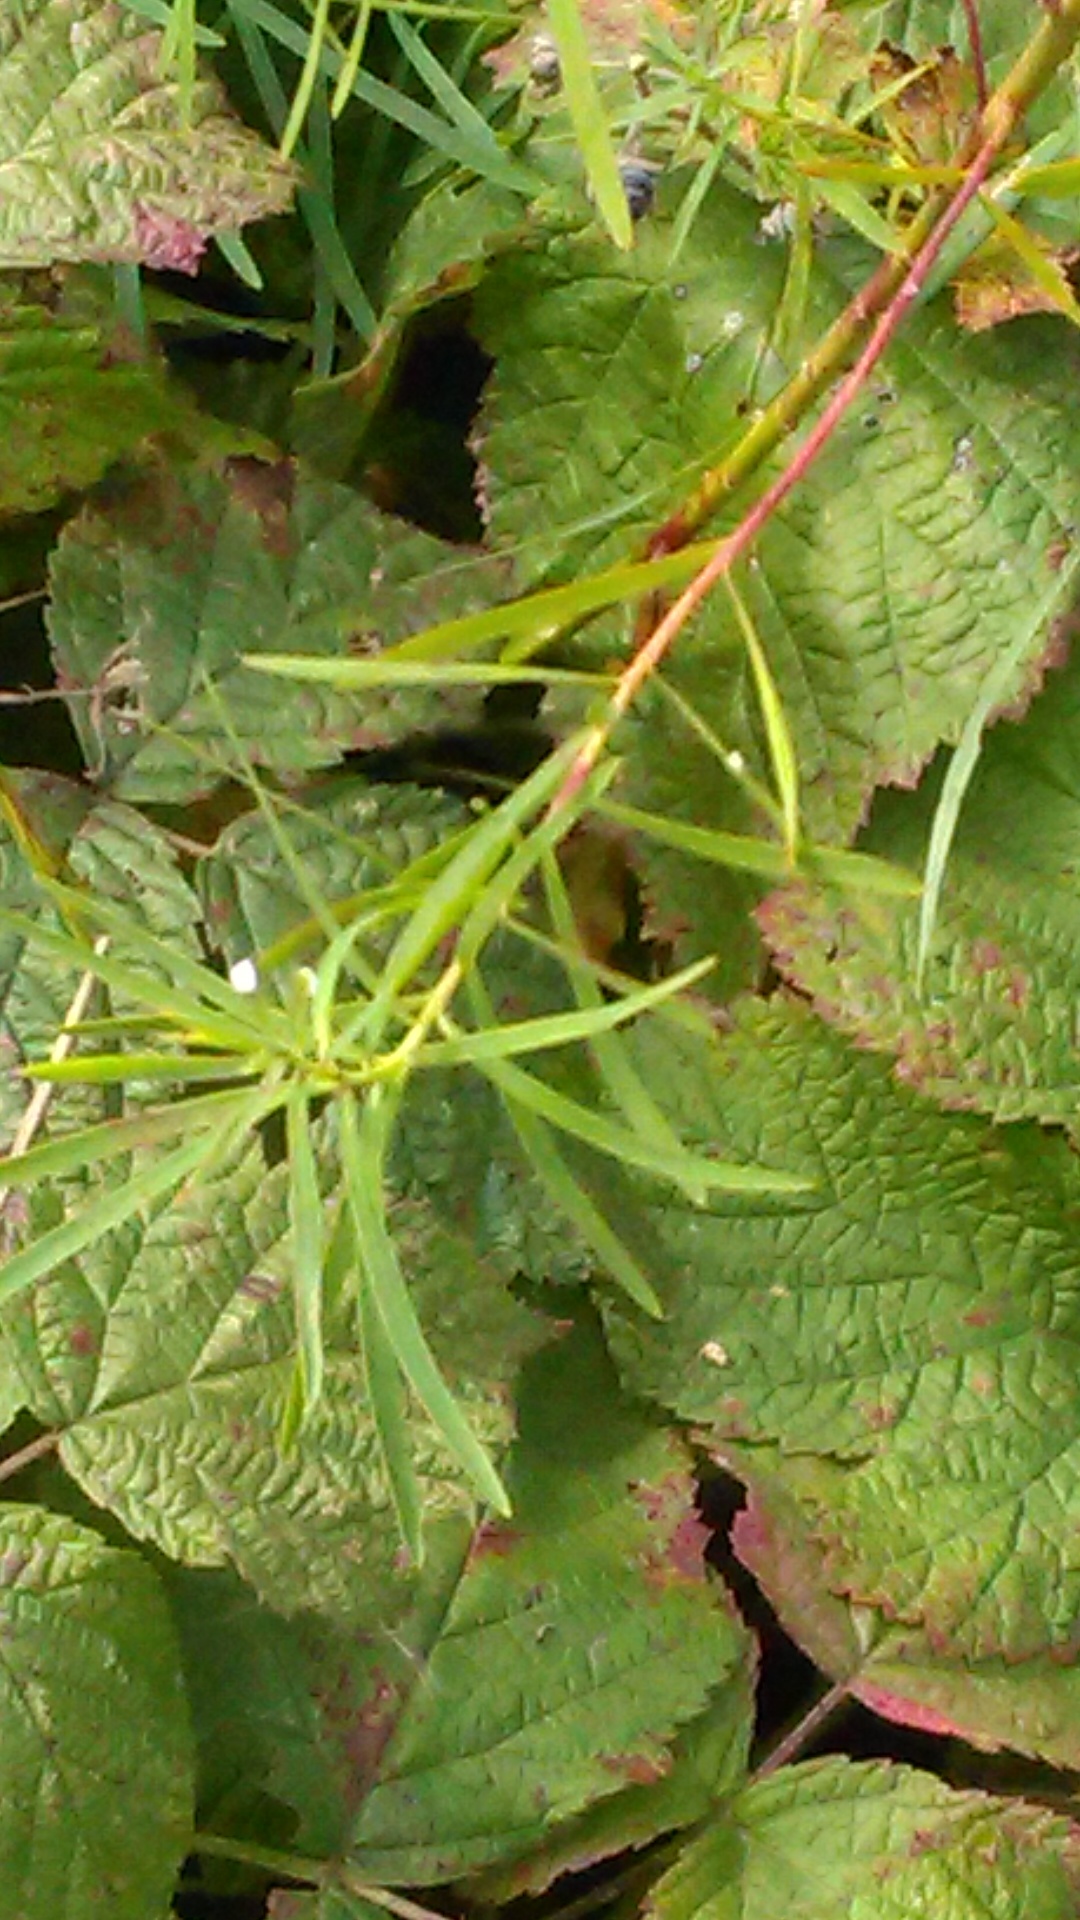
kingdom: Plantae
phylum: Tracheophyta
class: Magnoliopsida
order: Malpighiales
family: Euphorbiaceae
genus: Euphorbia
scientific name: Euphorbia virgata
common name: Leafy spurge
